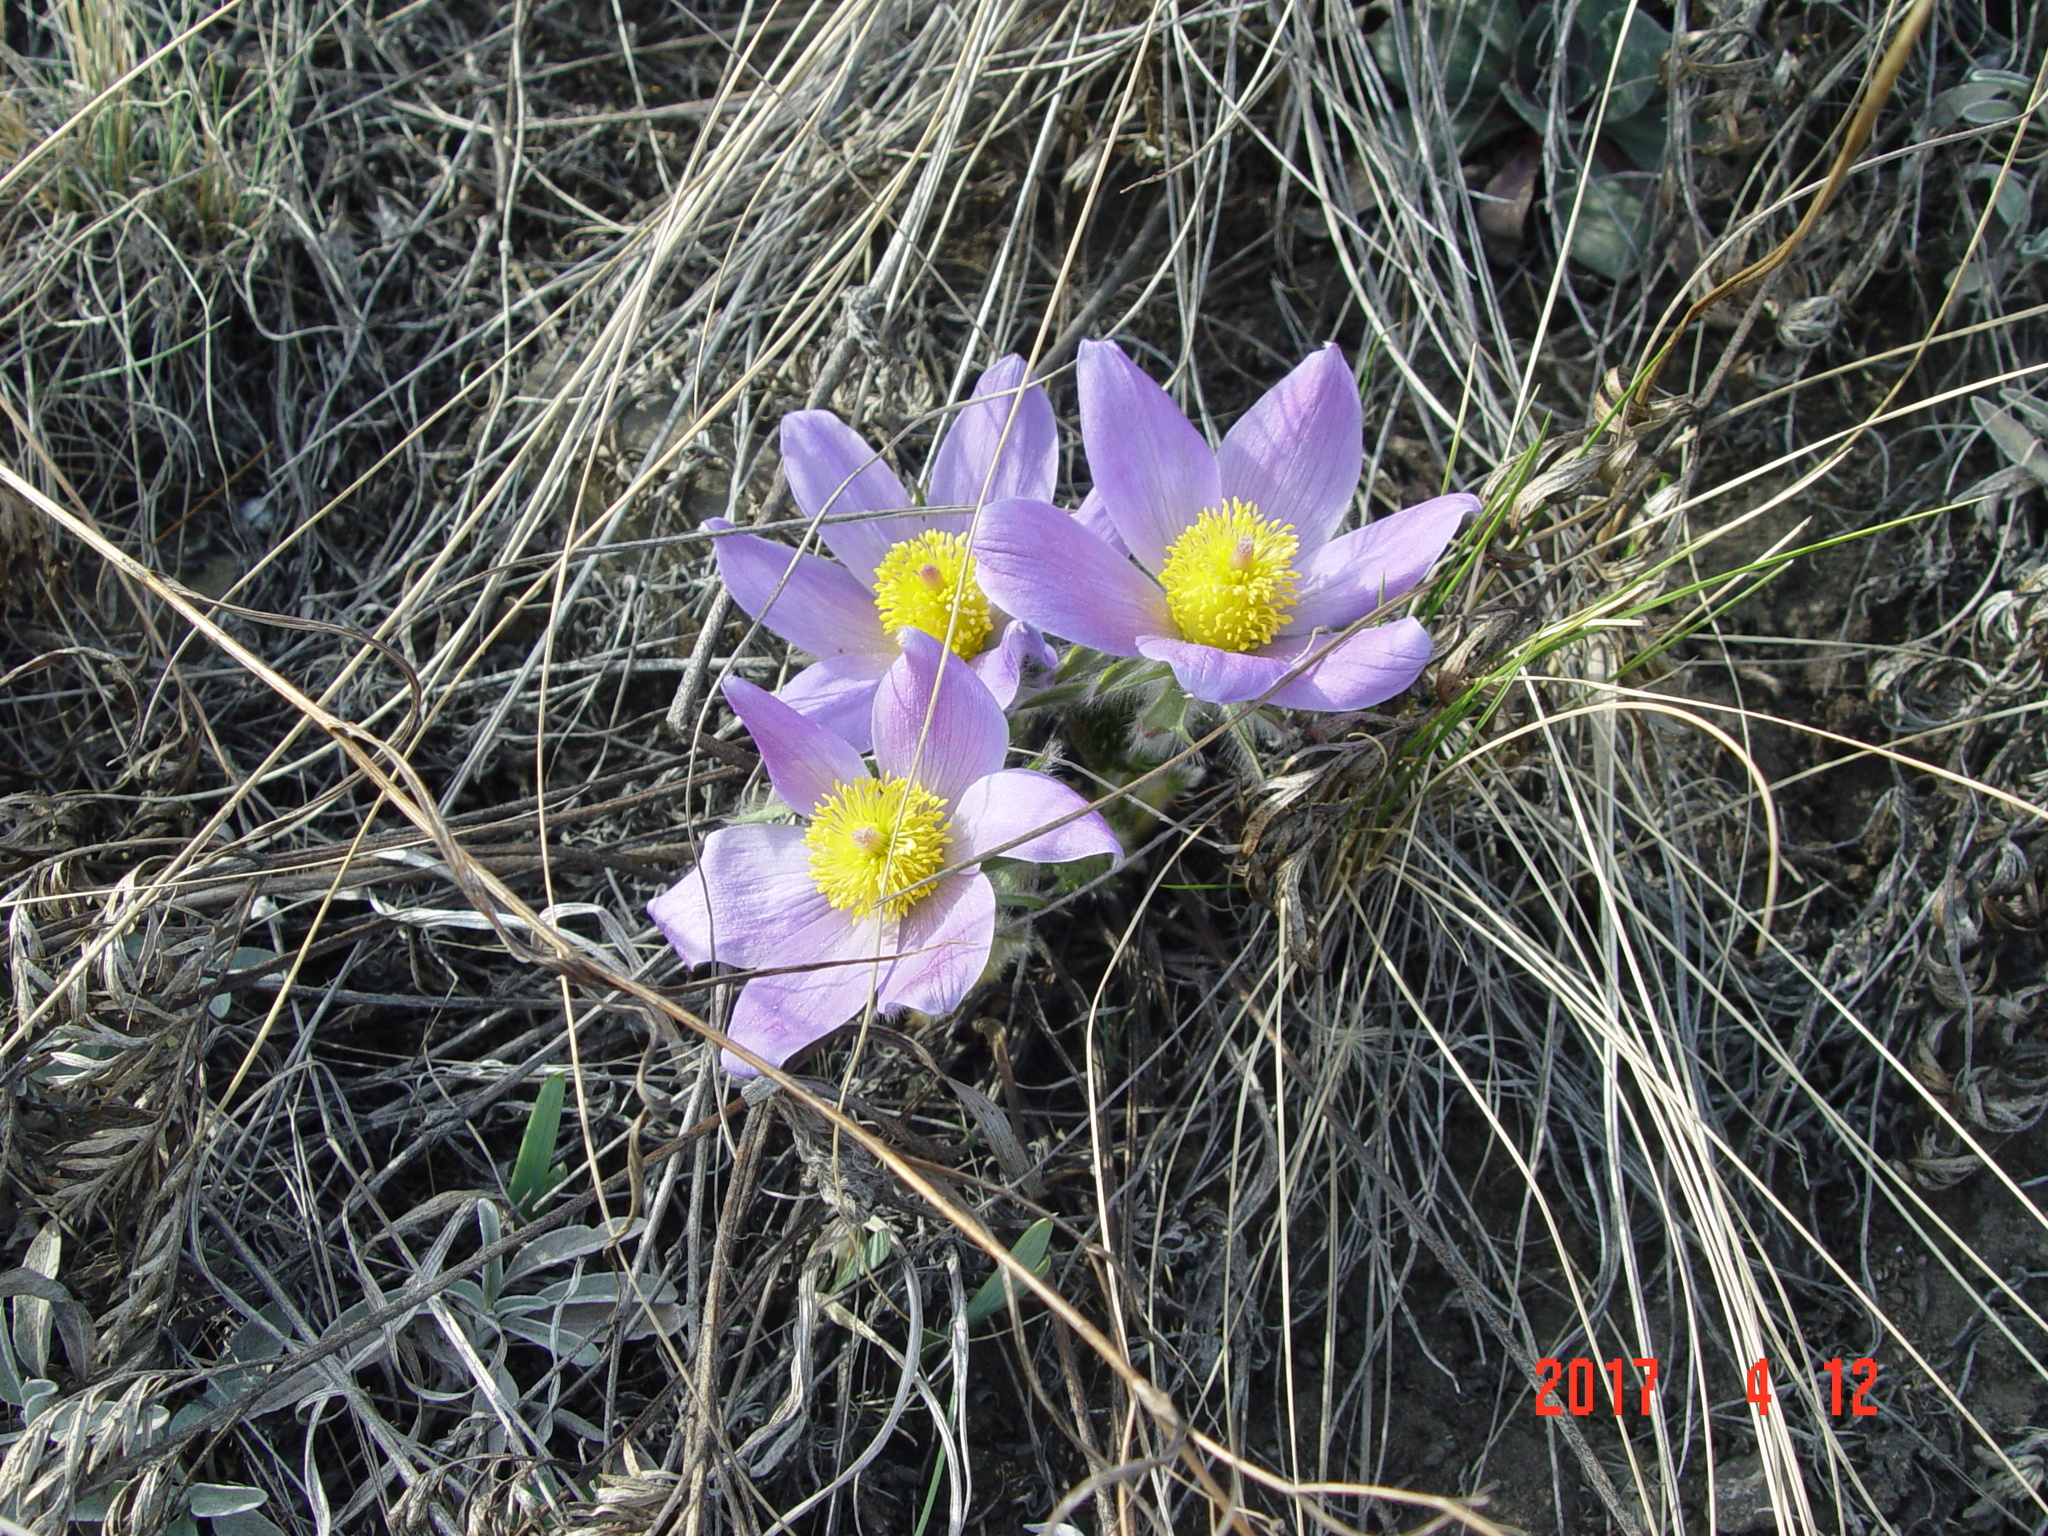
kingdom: Plantae
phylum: Tracheophyta
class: Magnoliopsida
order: Ranunculales
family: Ranunculaceae
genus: Pulsatilla
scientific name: Pulsatilla turczaninovii
